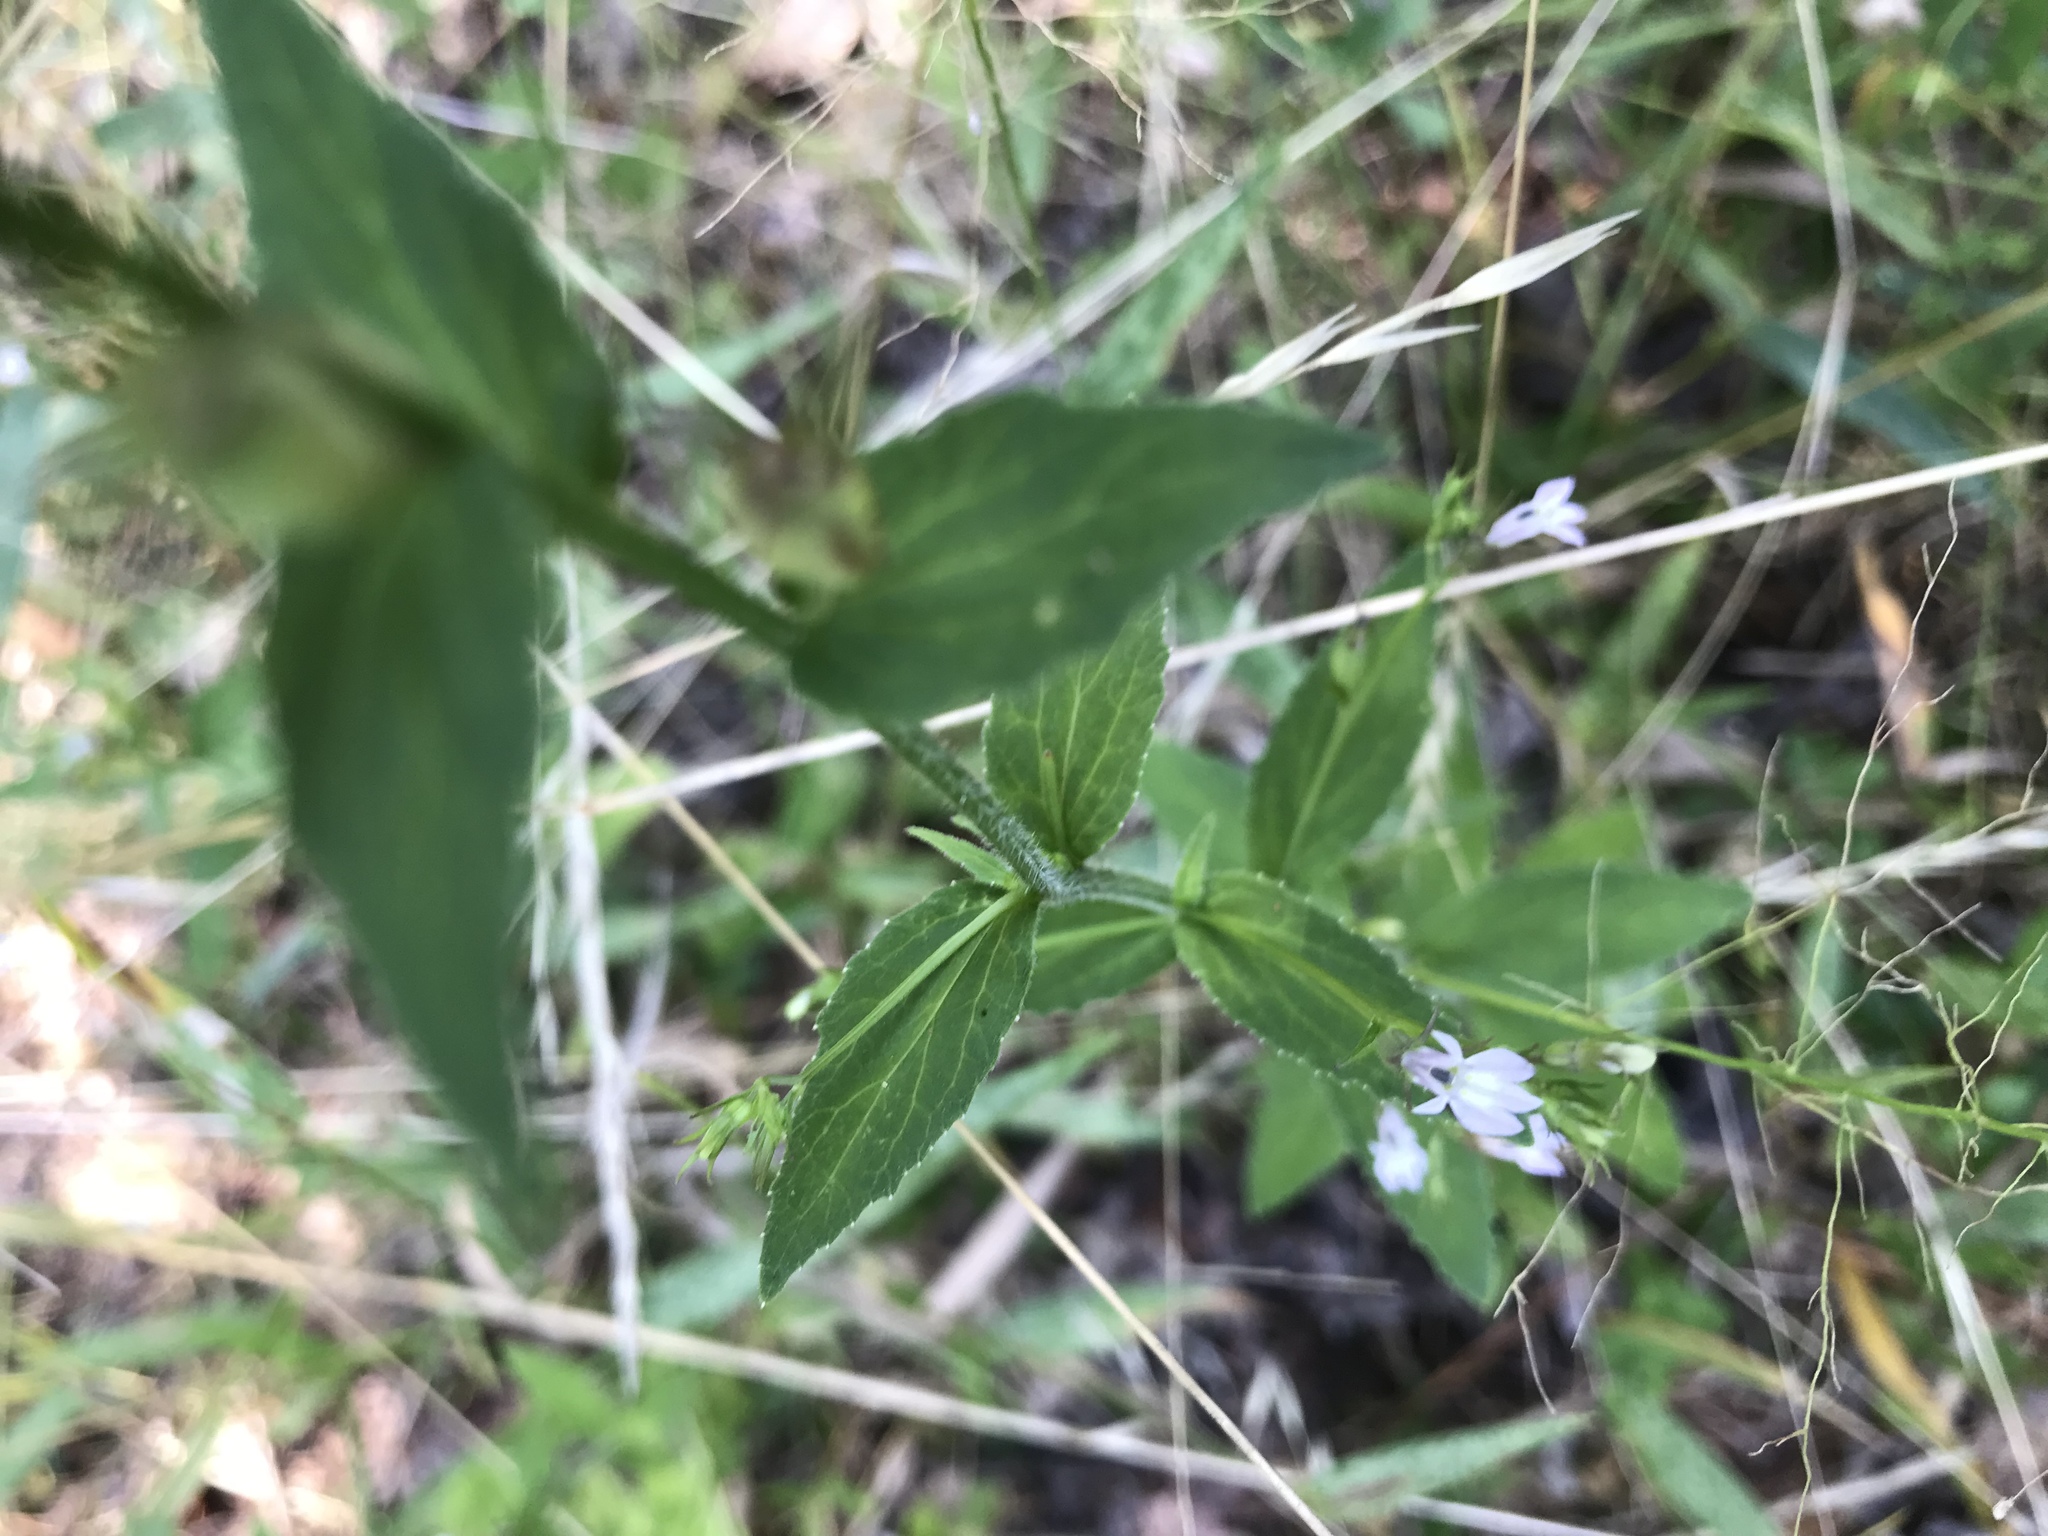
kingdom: Plantae
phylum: Tracheophyta
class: Magnoliopsida
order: Asterales
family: Campanulaceae
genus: Lobelia
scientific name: Lobelia inflata
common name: Indian tobacco
